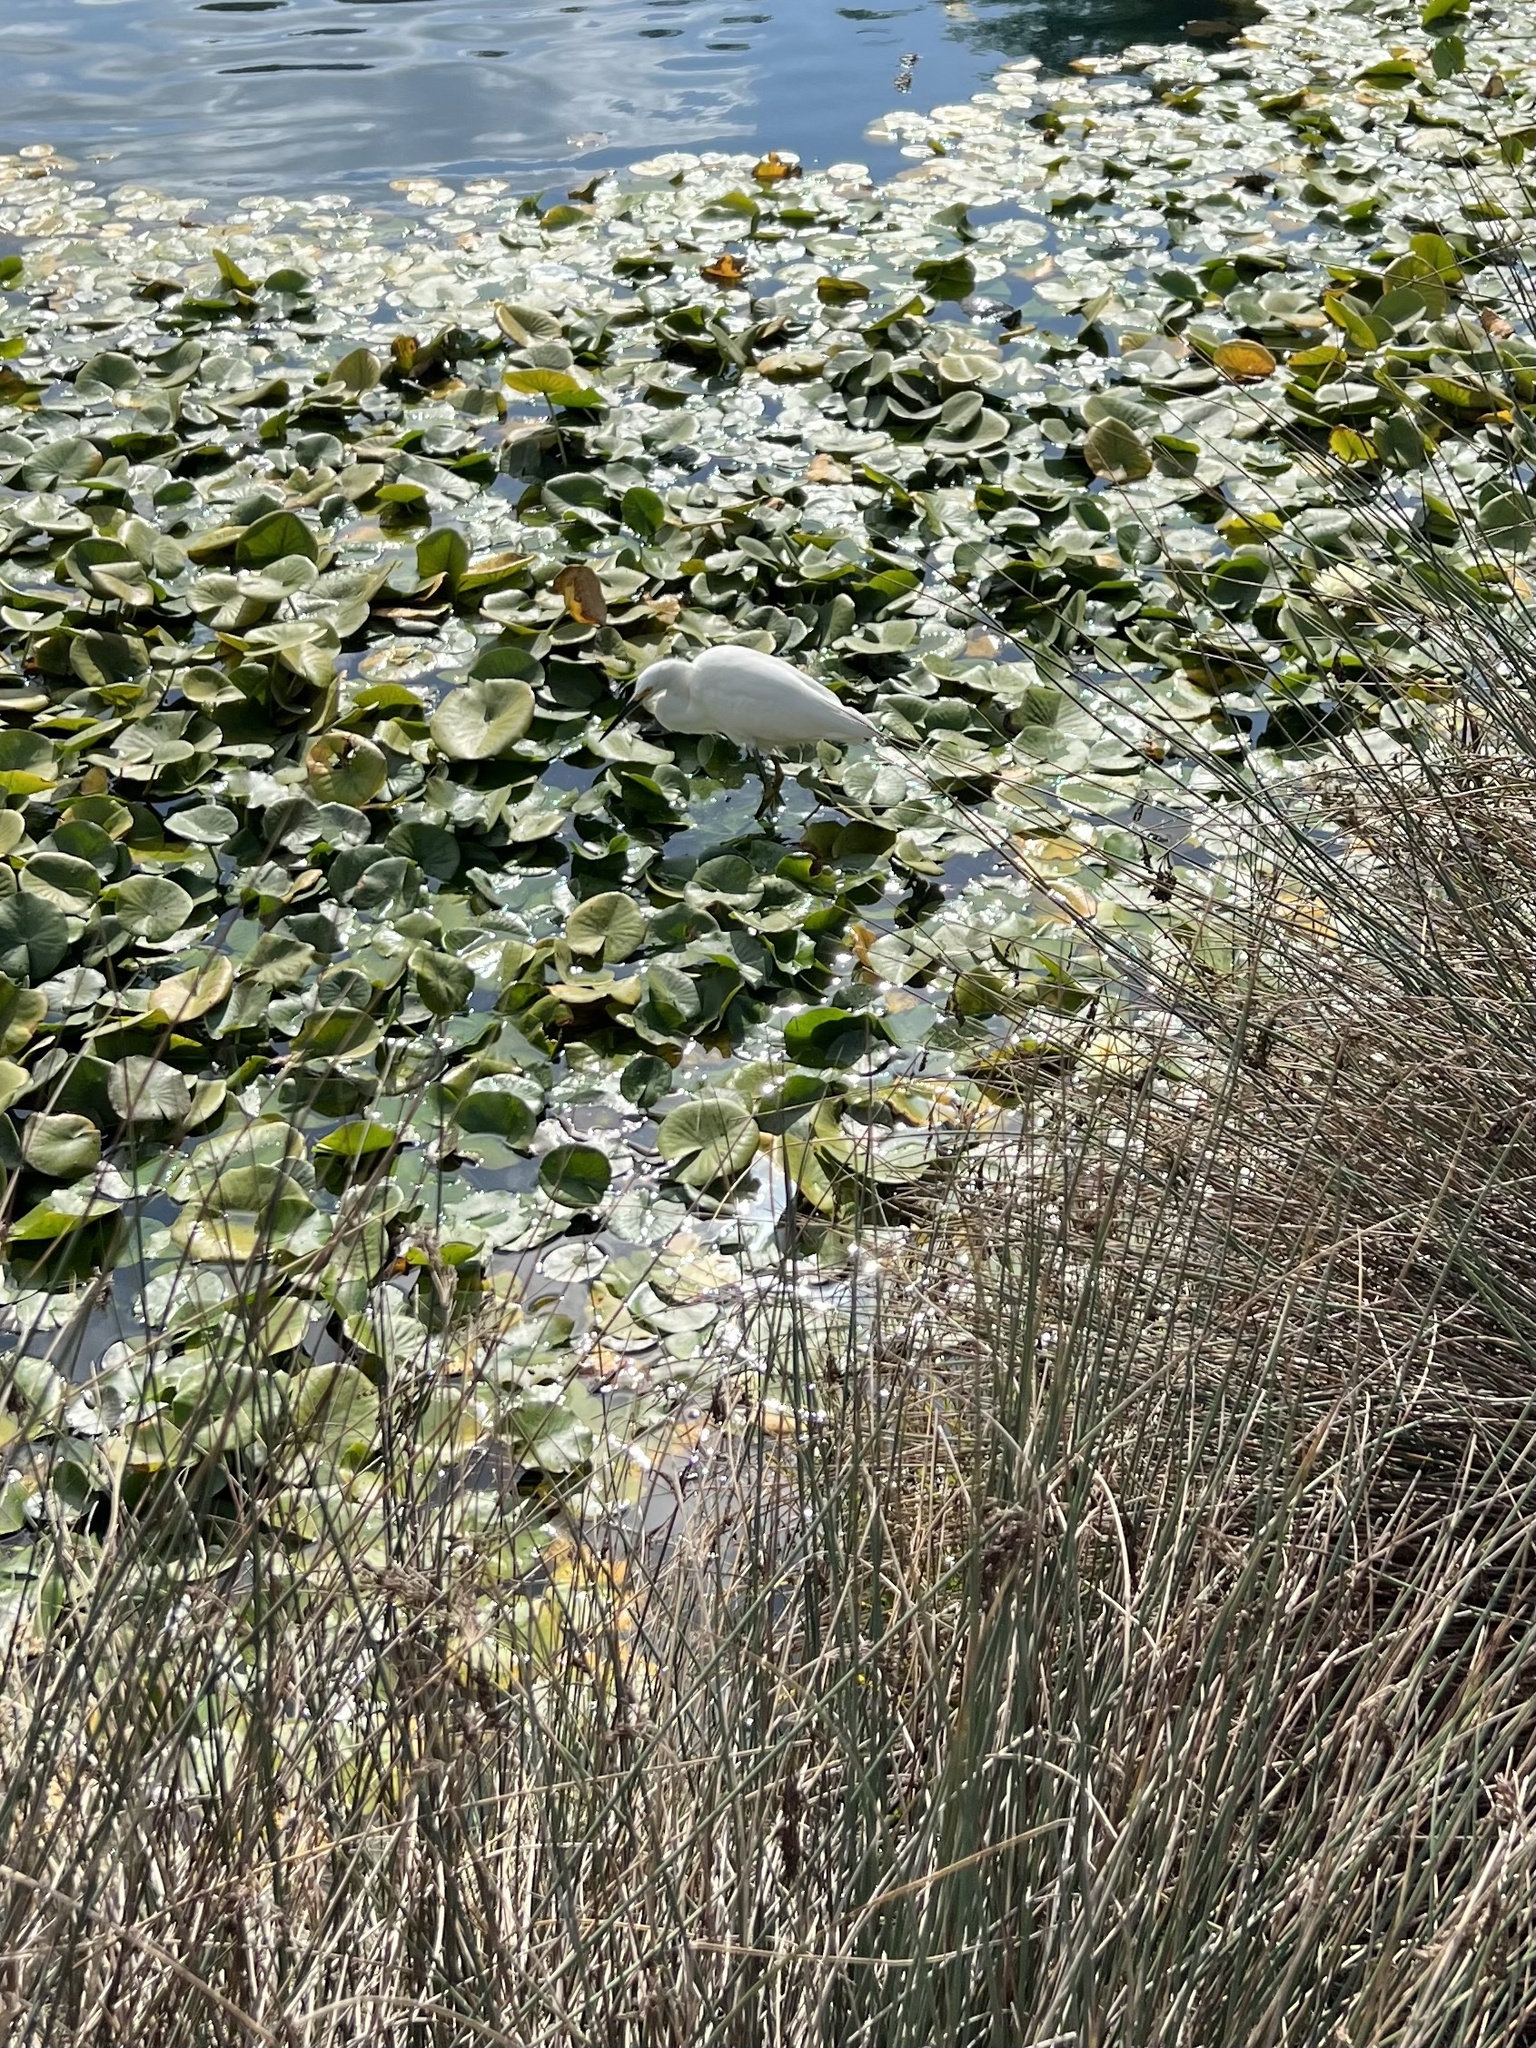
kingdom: Animalia
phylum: Chordata
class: Aves
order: Pelecaniformes
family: Ardeidae
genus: Egretta
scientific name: Egretta thula
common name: Snowy egret
